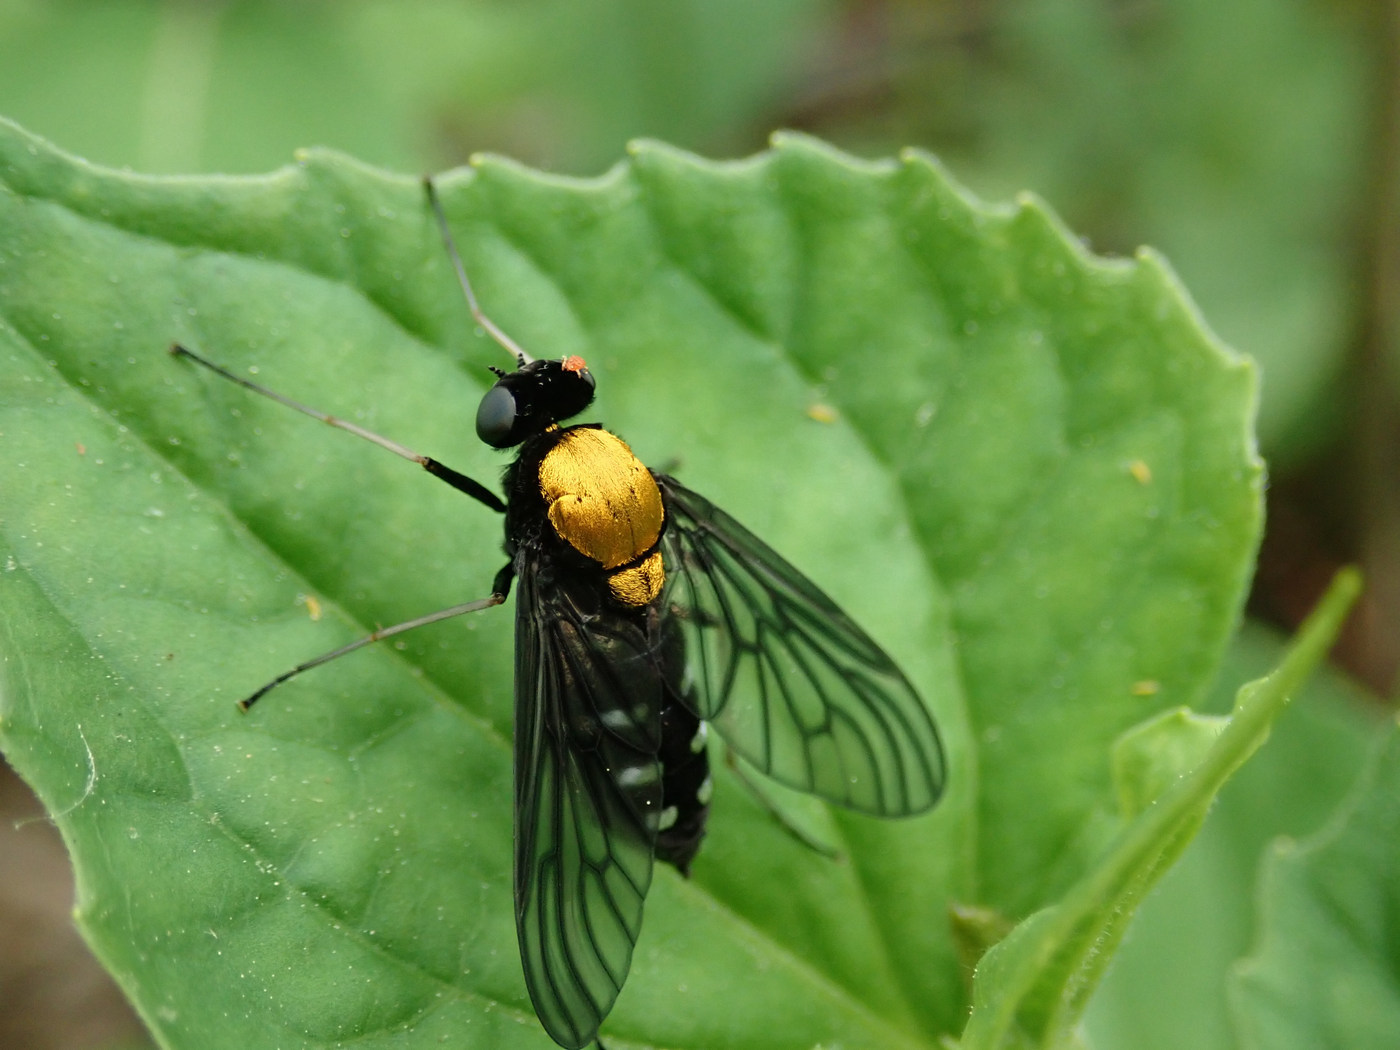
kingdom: Animalia
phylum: Arthropoda
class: Insecta
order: Diptera
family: Rhagionidae
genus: Chrysopilus
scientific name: Chrysopilus thoracicus
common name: Golden-backed snipe fly
